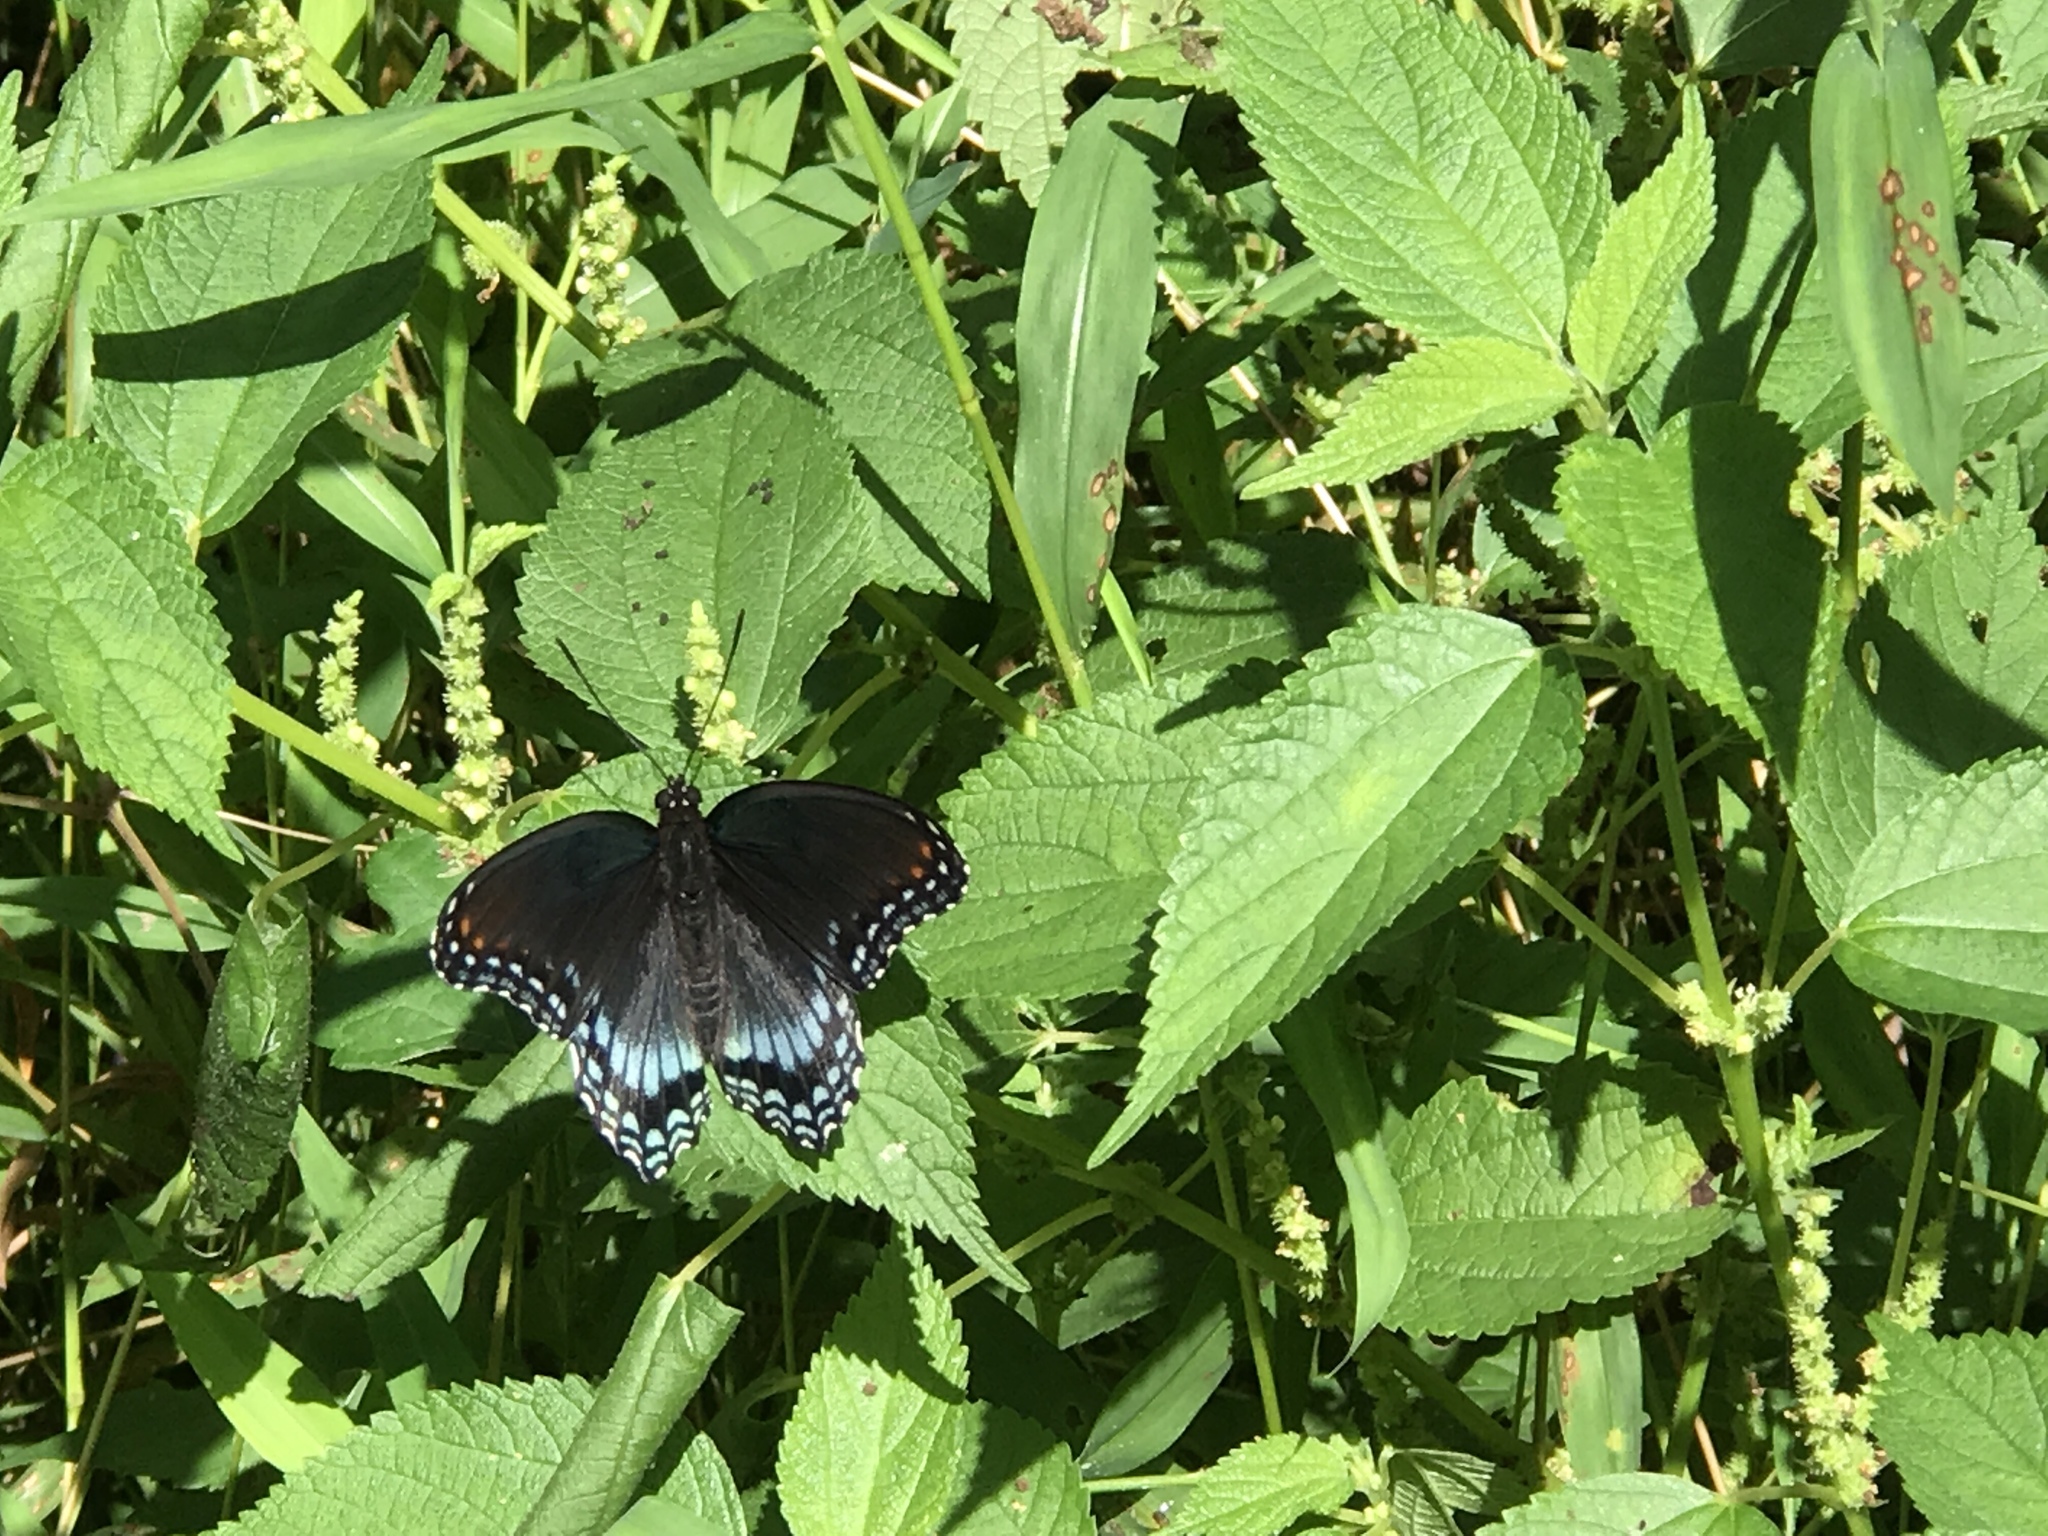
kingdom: Animalia
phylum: Arthropoda
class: Insecta
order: Lepidoptera
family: Nymphalidae
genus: Limenitis
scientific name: Limenitis astyanax
